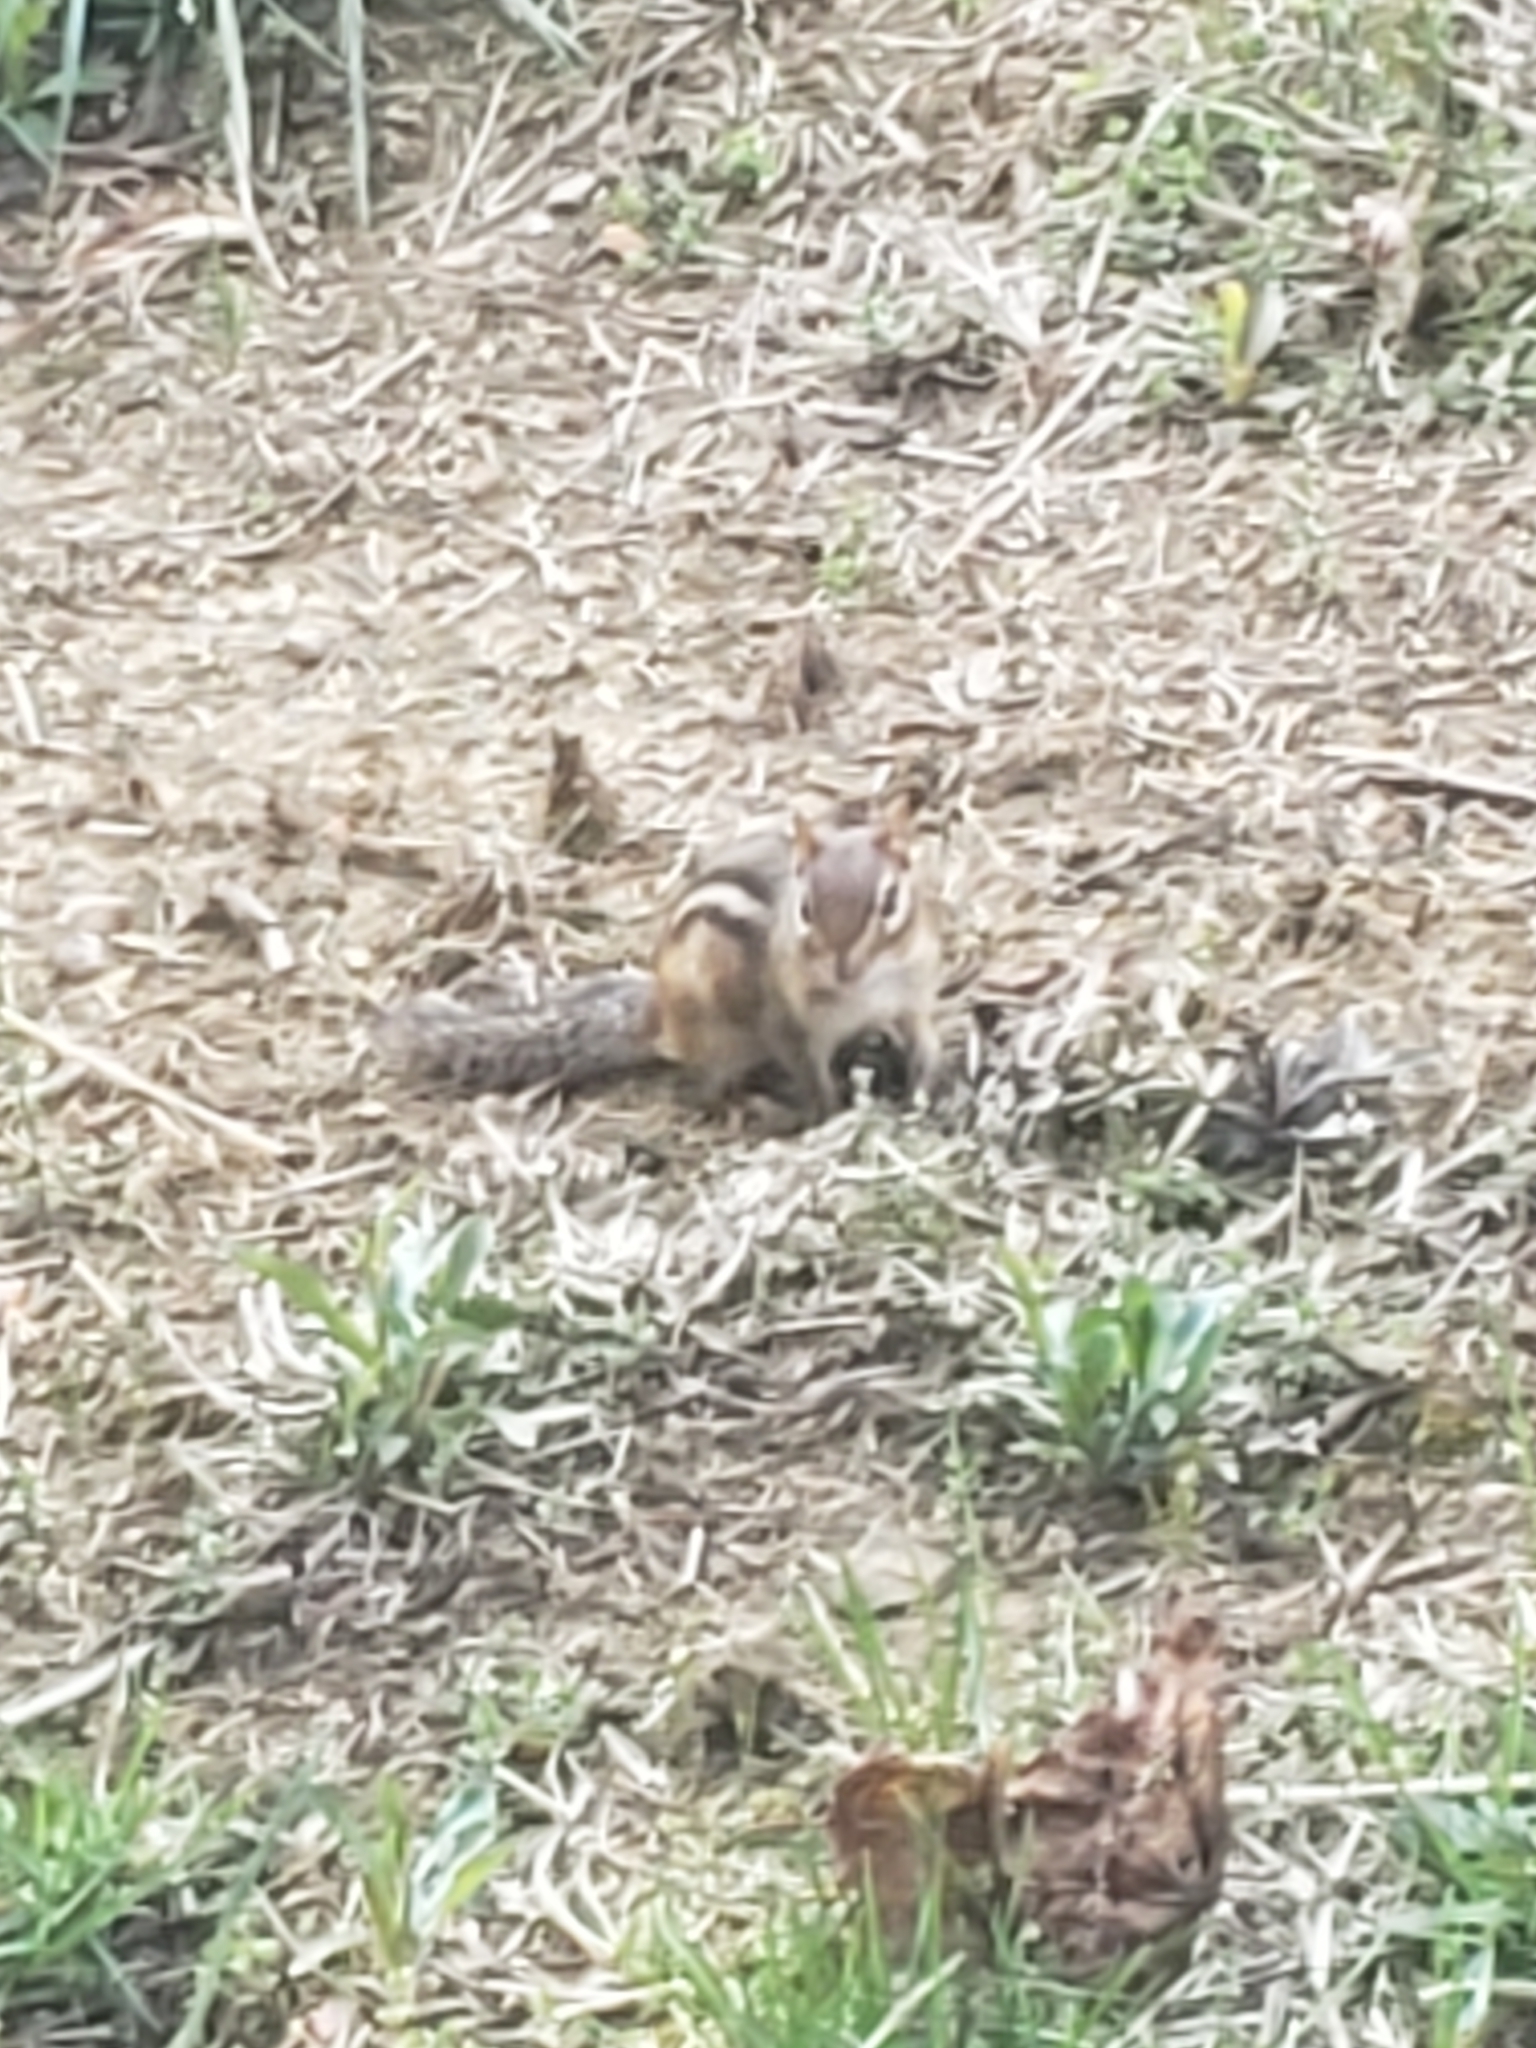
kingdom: Animalia
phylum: Chordata
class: Mammalia
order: Rodentia
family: Sciuridae
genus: Tamias
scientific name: Tamias striatus
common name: Eastern chipmunk
